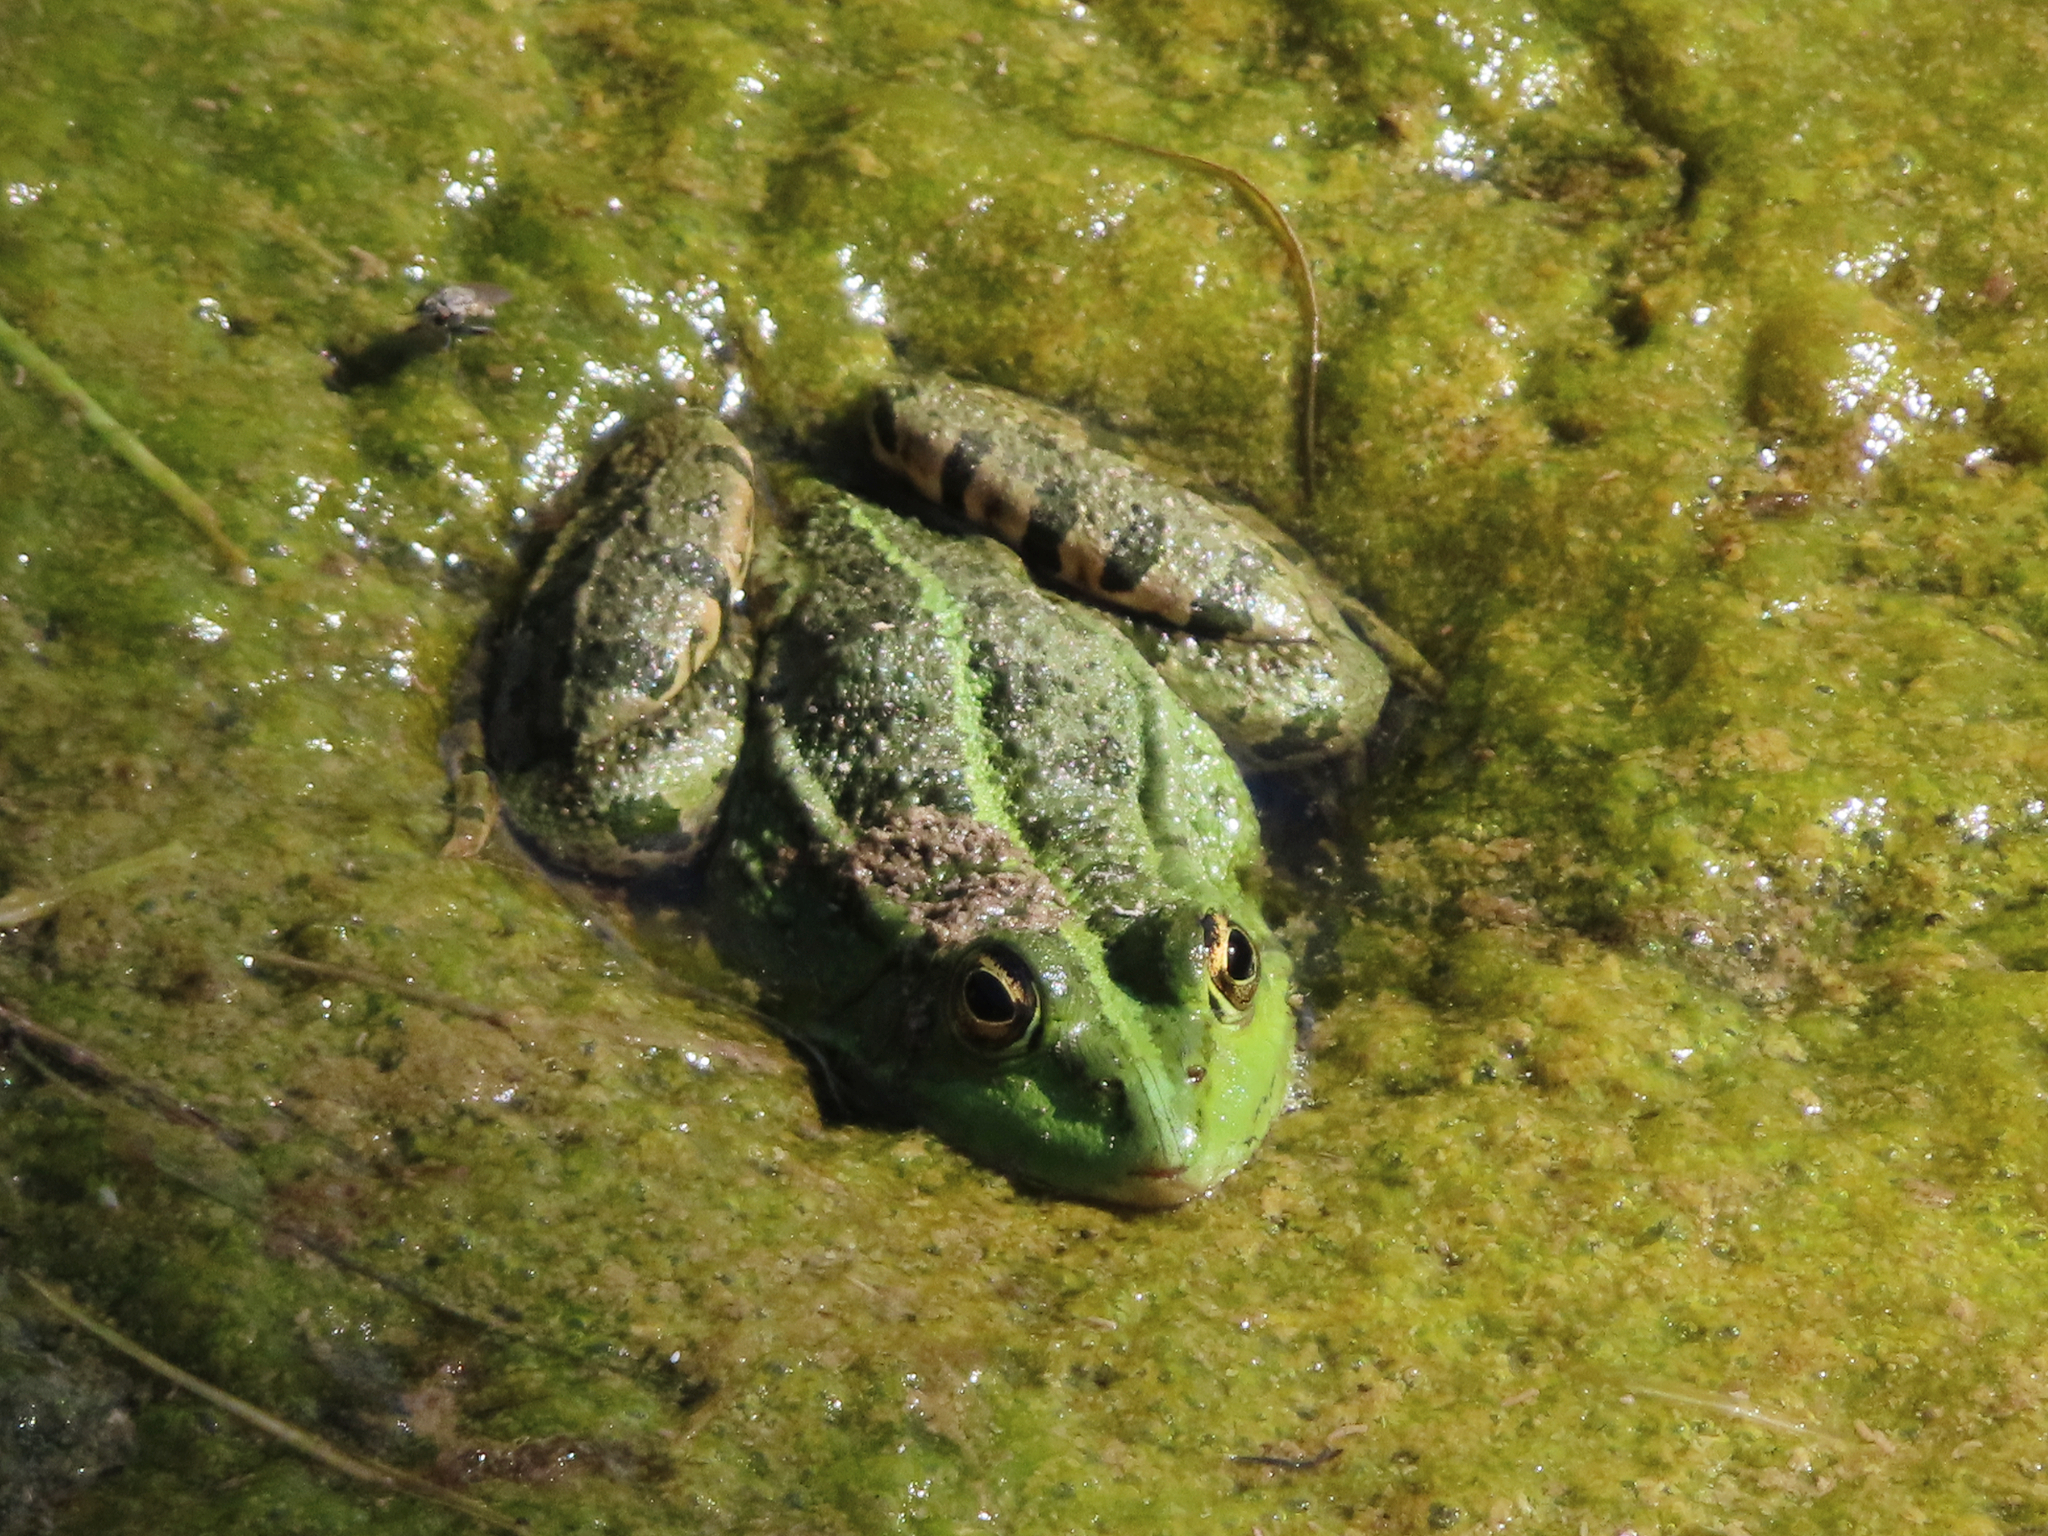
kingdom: Animalia
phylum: Chordata
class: Amphibia
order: Anura
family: Ranidae
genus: Pelophylax
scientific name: Pelophylax ridibundus
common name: Marsh frog
